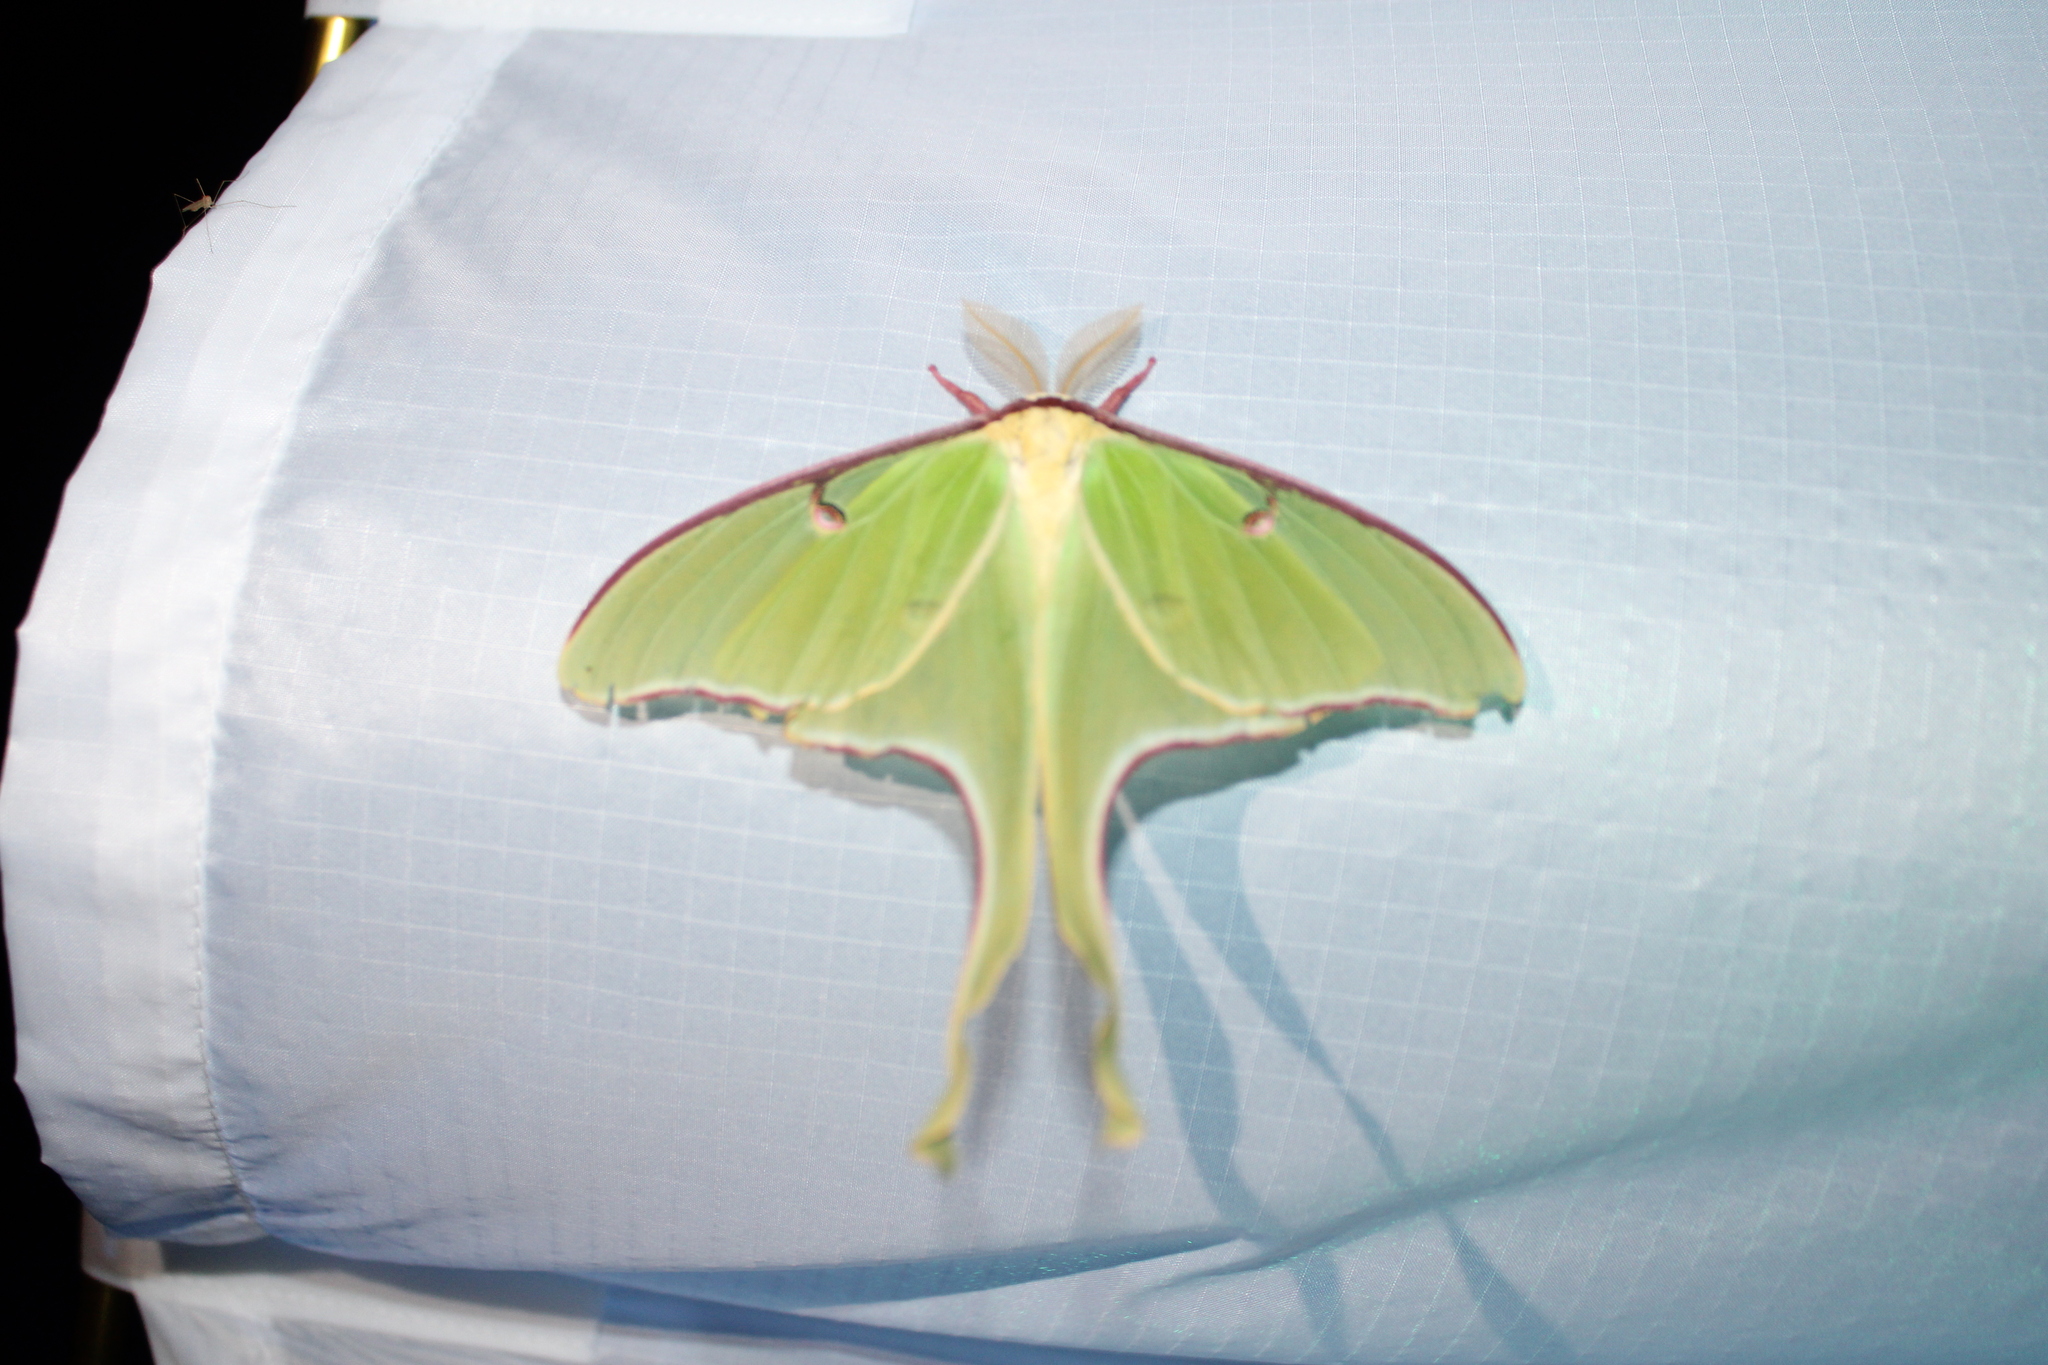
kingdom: Animalia
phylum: Arthropoda
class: Insecta
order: Lepidoptera
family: Saturniidae
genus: Actias
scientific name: Actias luna
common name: Luna moth
